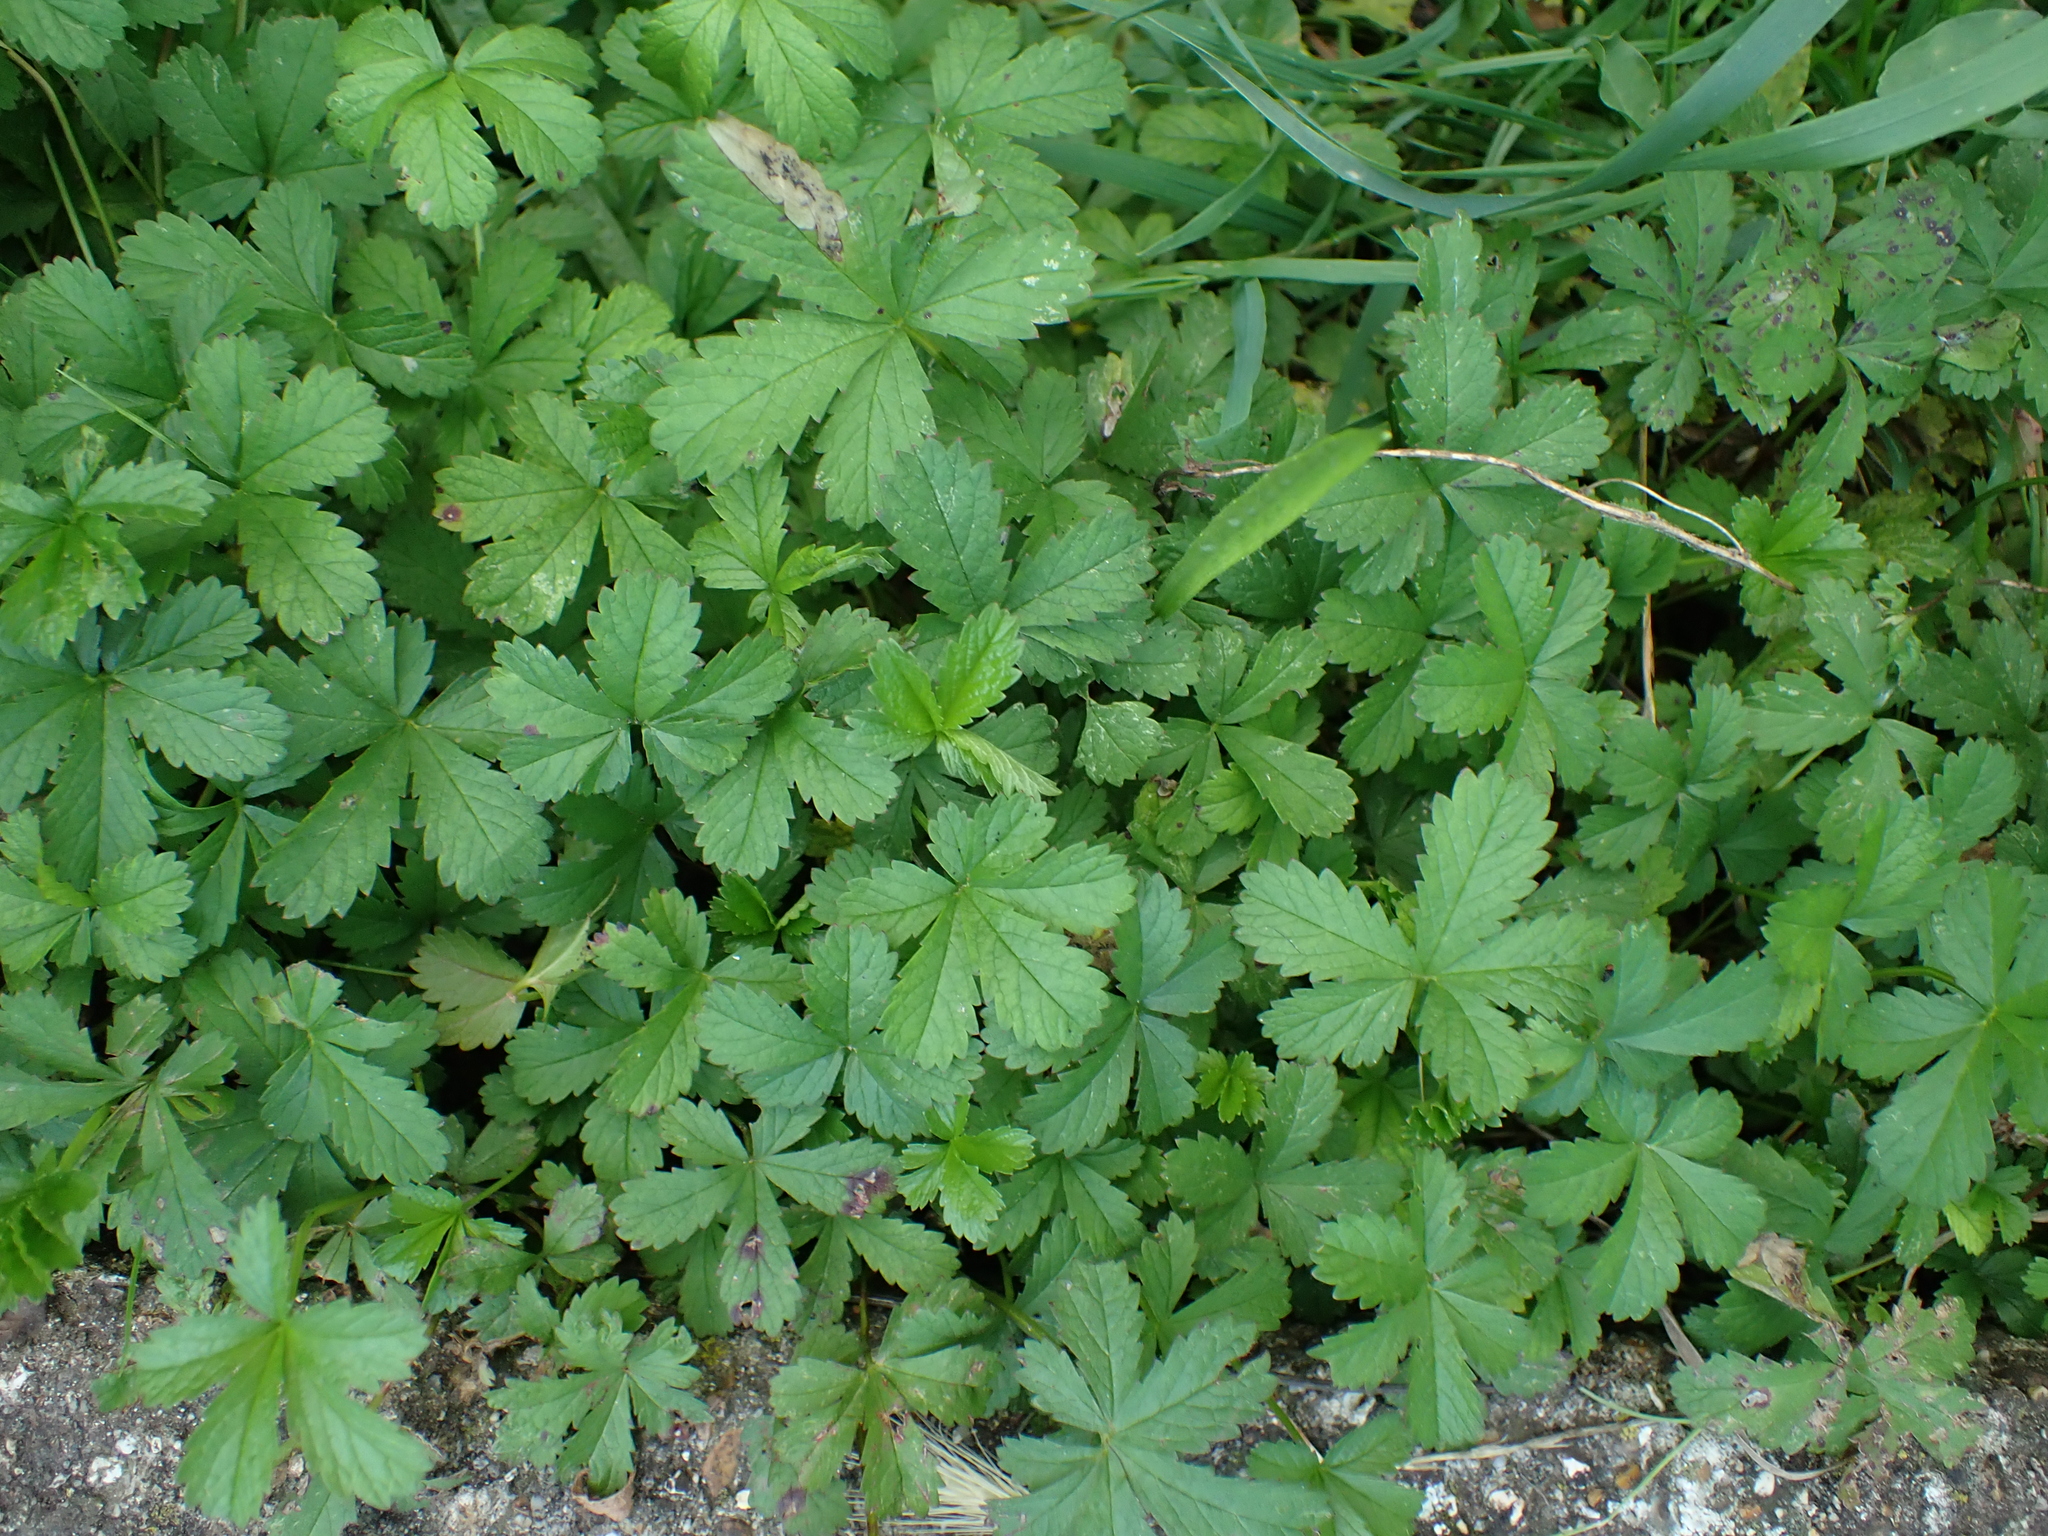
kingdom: Plantae
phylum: Tracheophyta
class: Magnoliopsida
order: Rosales
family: Rosaceae
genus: Potentilla
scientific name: Potentilla reptans
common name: Creeping cinquefoil
